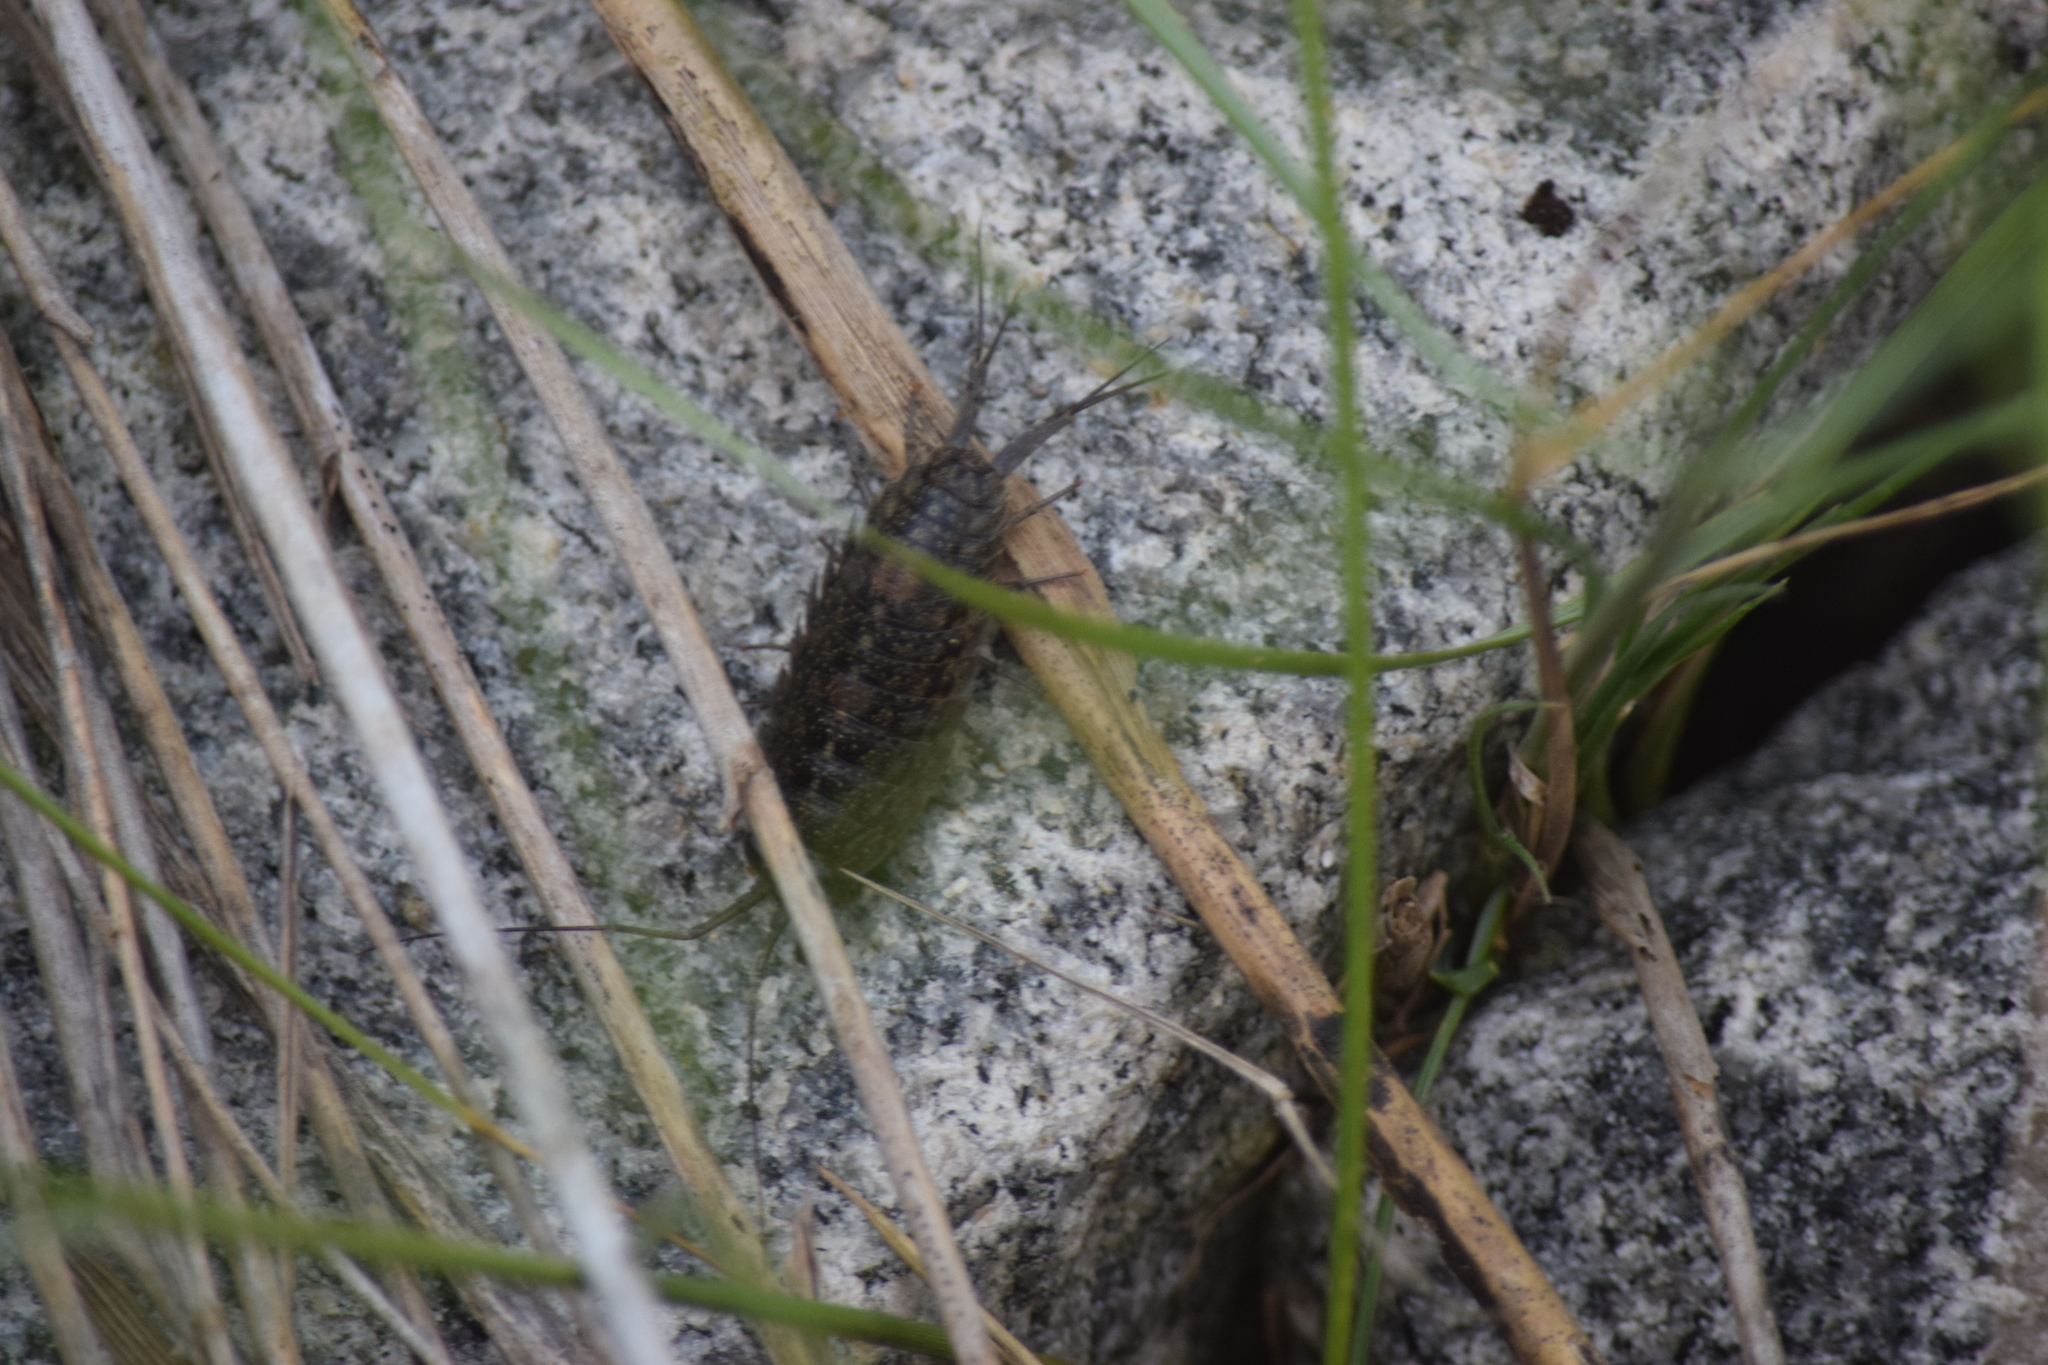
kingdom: Animalia
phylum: Arthropoda
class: Malacostraca
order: Isopoda
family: Ligiidae
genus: Ligia
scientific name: Ligia exotica
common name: Wharf roach
